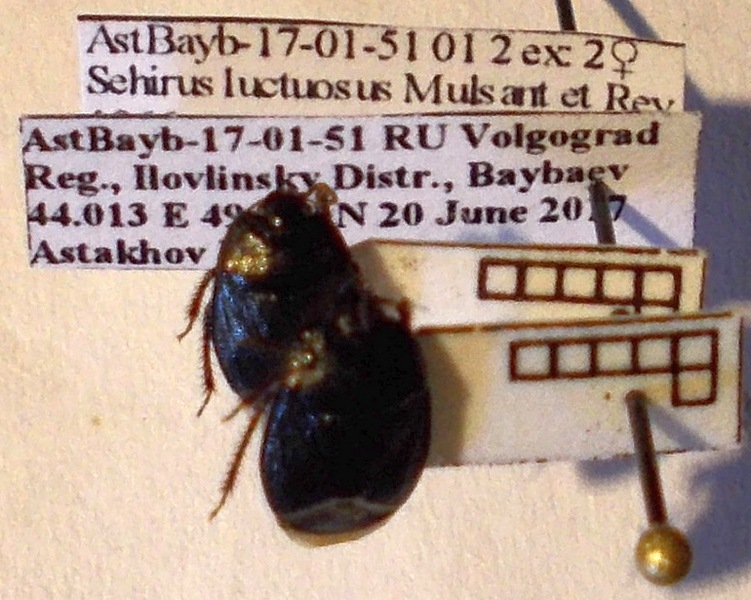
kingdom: Animalia
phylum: Arthropoda
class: Insecta
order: Hemiptera
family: Cydnidae
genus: Sehirus
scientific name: Sehirus luctuosus
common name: Forget-me-not shieldbug
